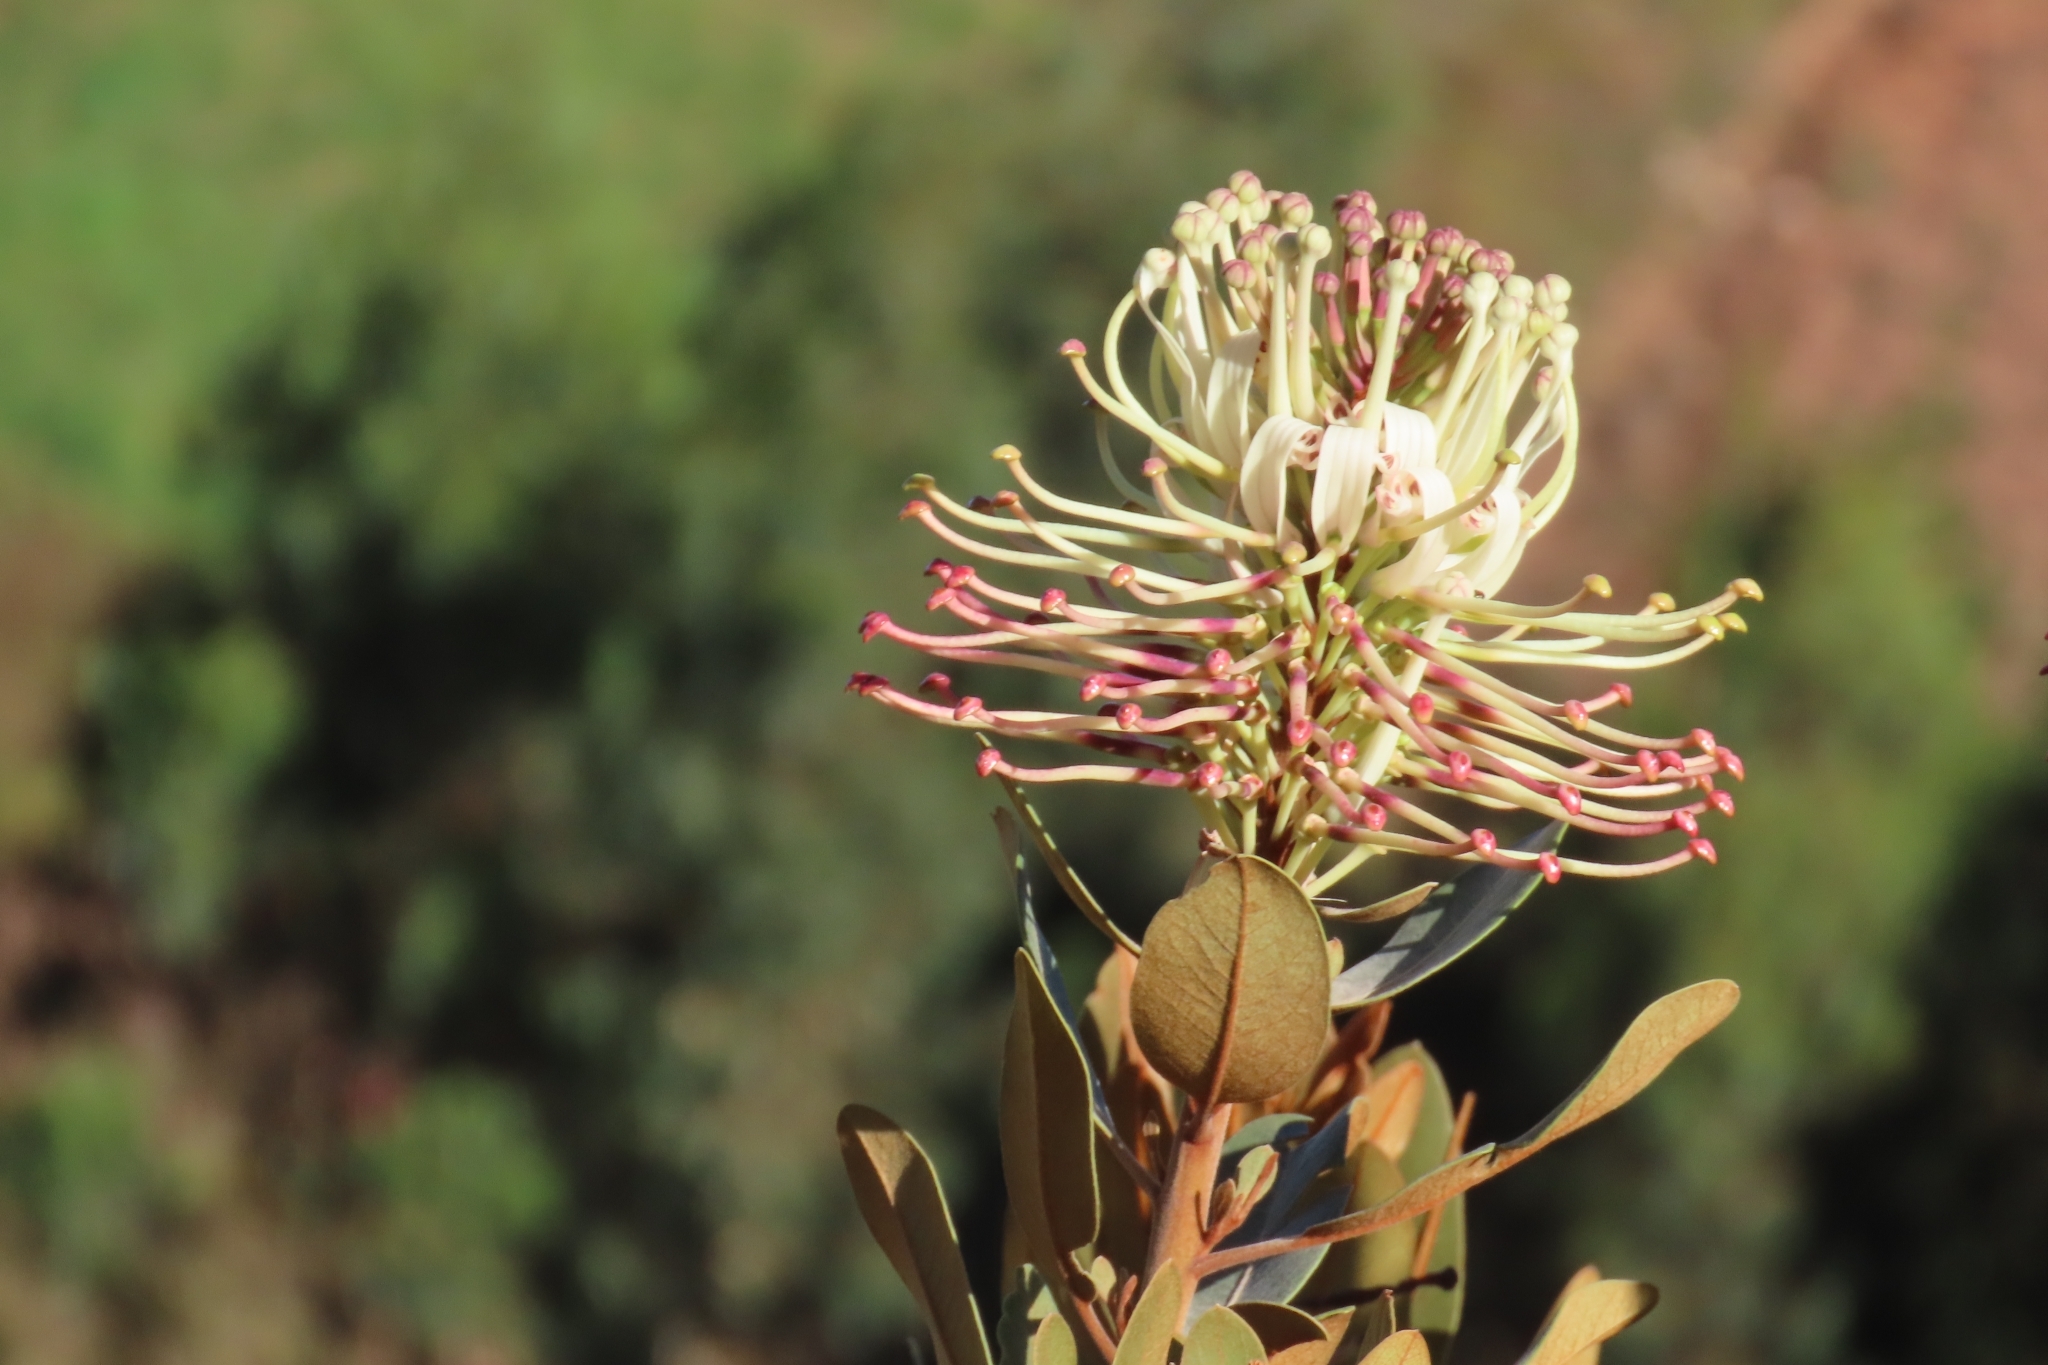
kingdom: Plantae
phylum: Tracheophyta
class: Magnoliopsida
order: Proteales
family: Proteaceae
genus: Oreocallis
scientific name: Oreocallis grandiflora
